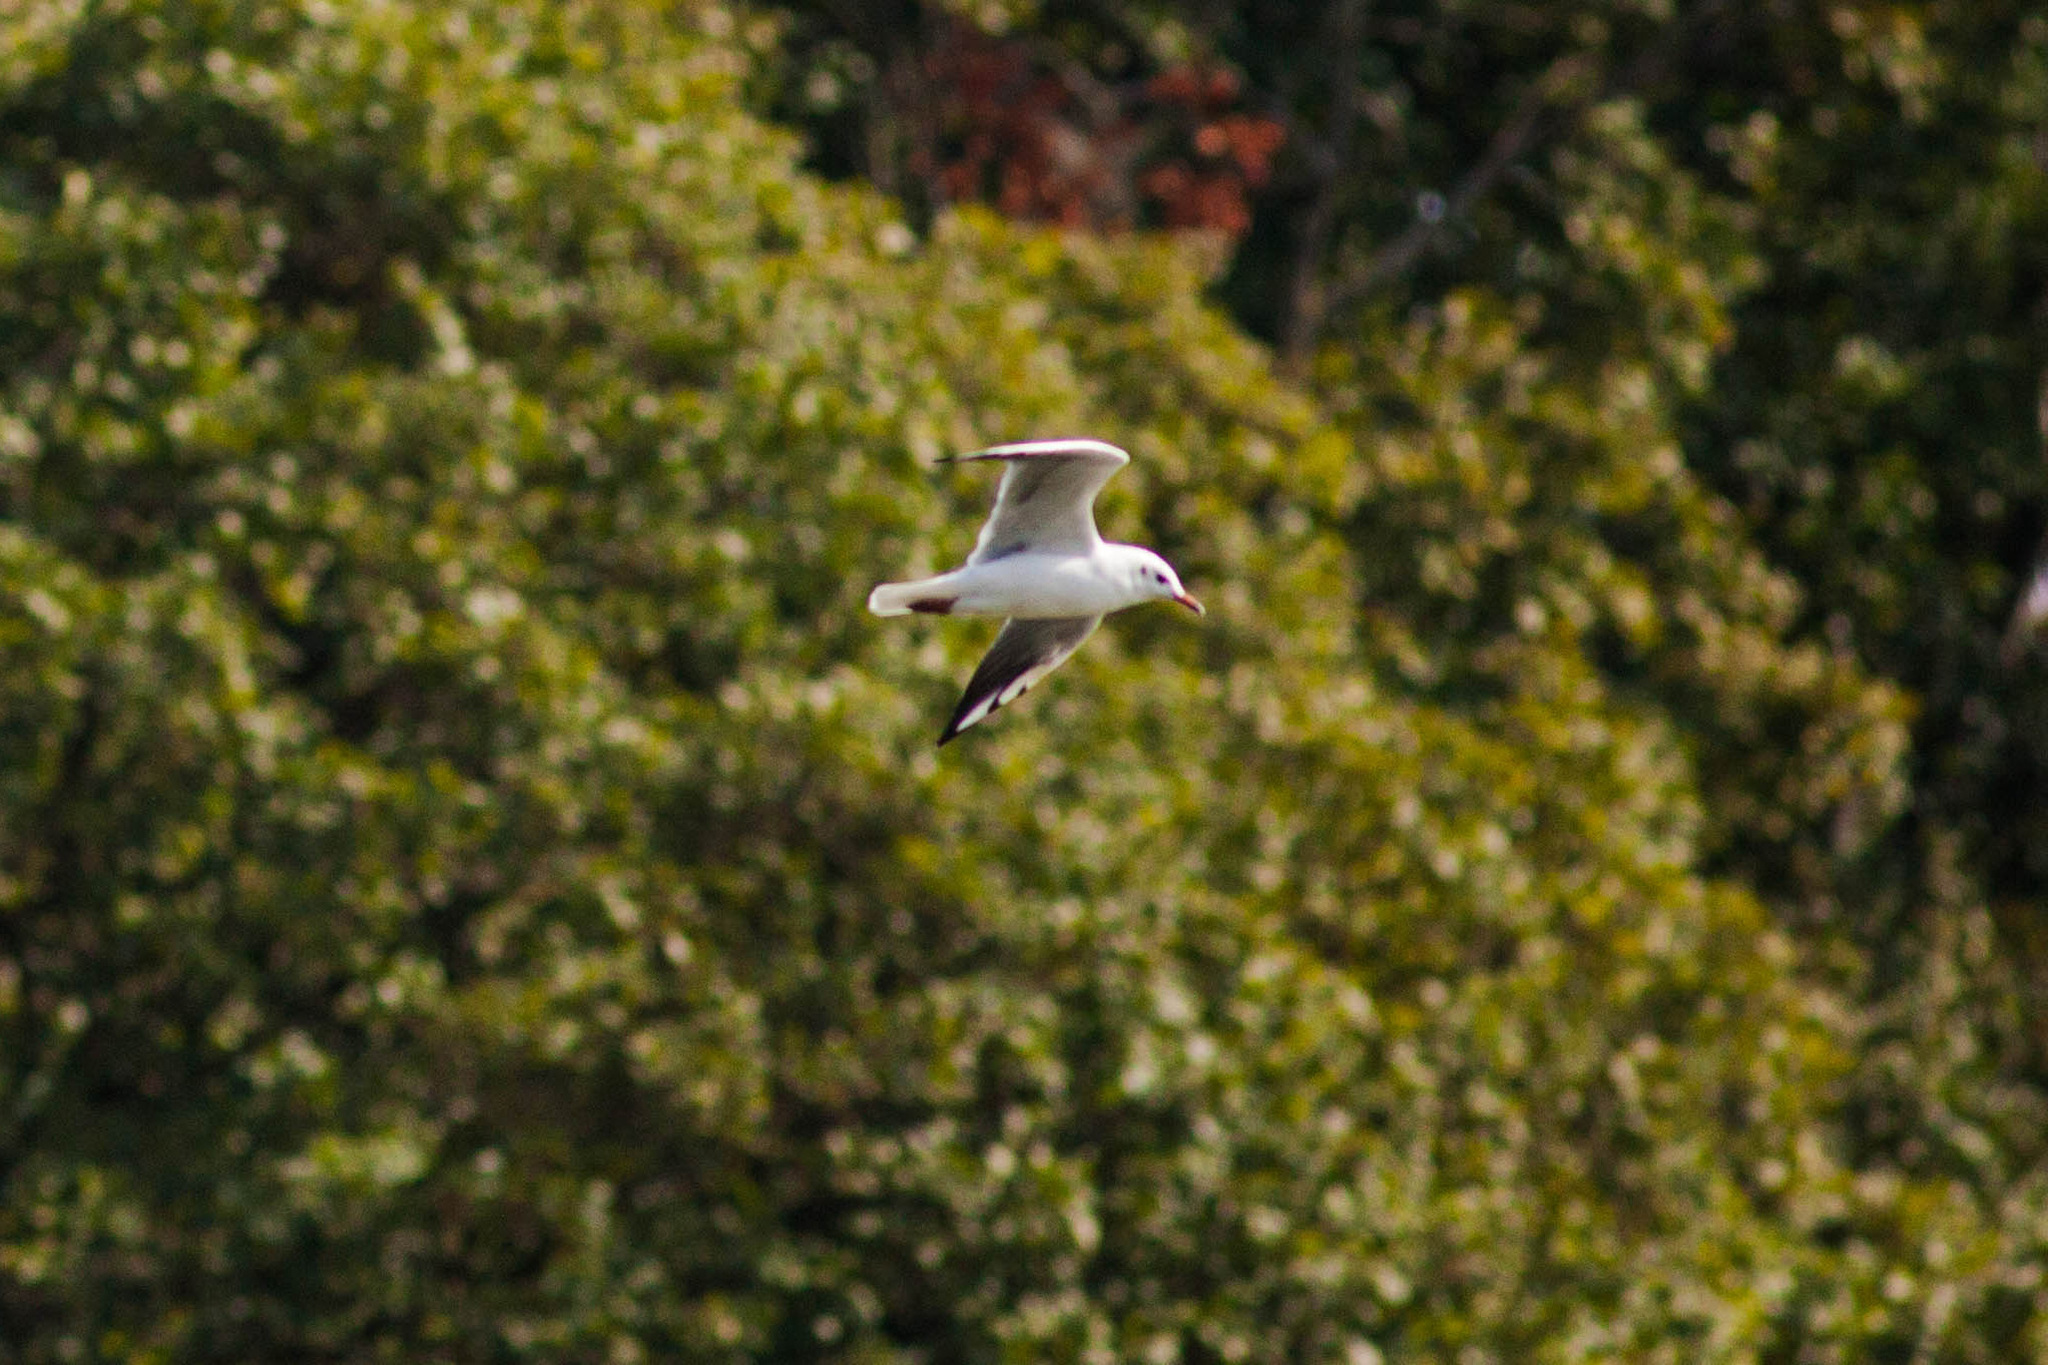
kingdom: Animalia
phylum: Chordata
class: Aves
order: Charadriiformes
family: Laridae
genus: Chroicocephalus
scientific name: Chroicocephalus ridibundus
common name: Black-headed gull
